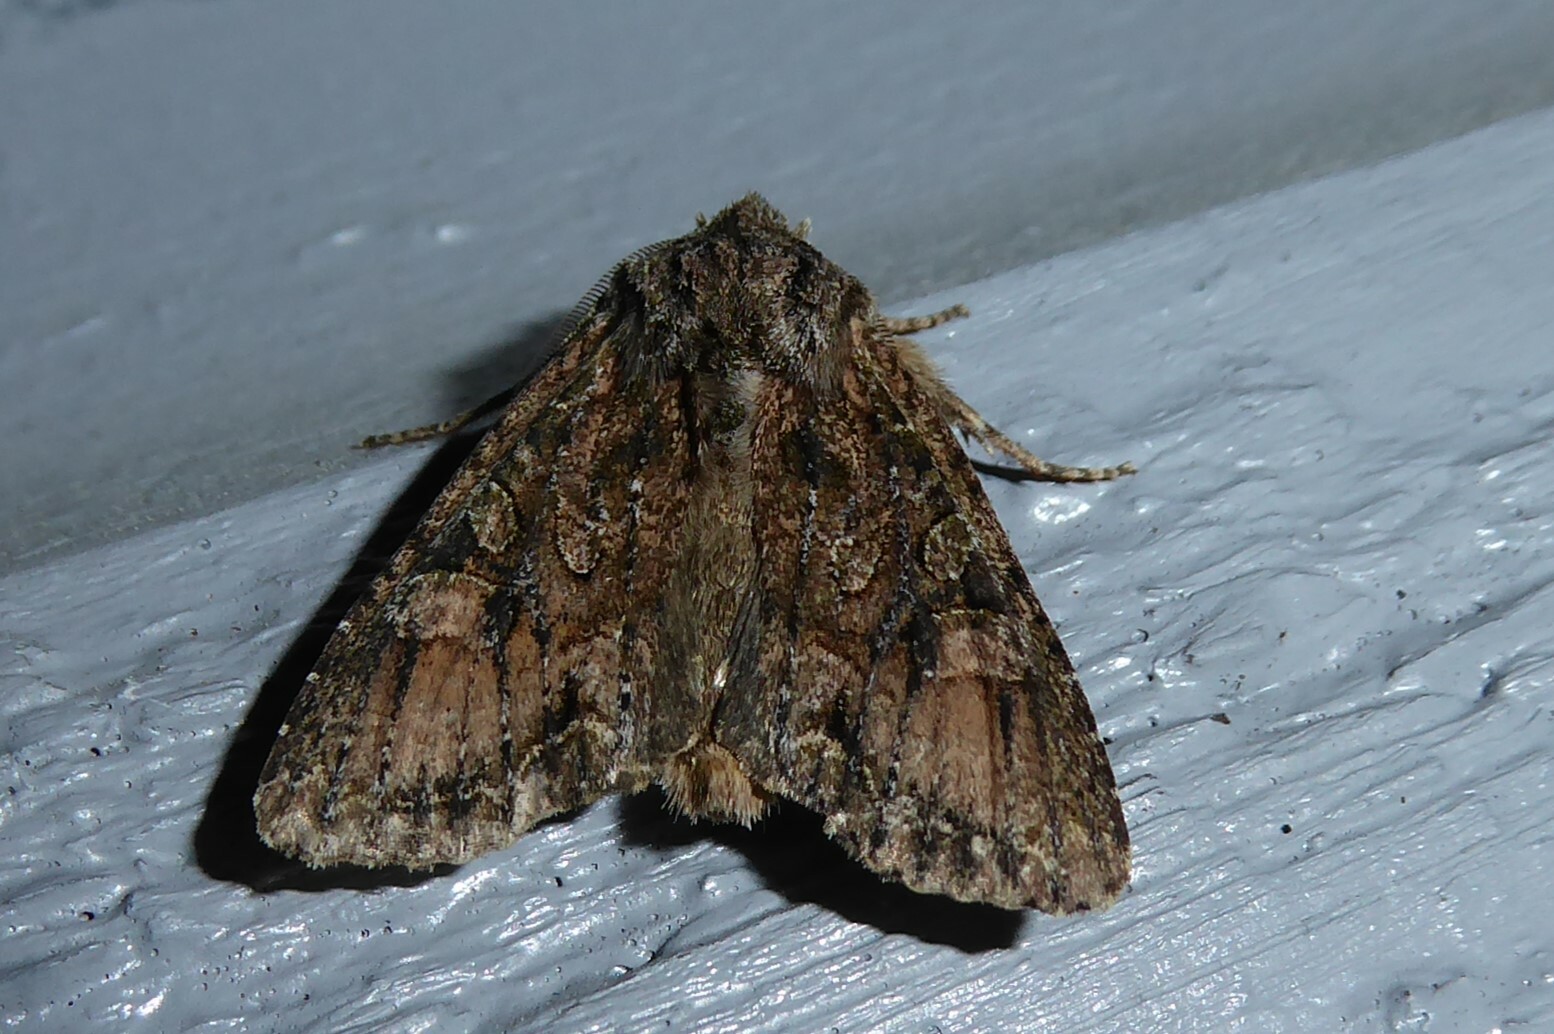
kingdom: Animalia
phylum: Arthropoda
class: Insecta
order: Lepidoptera
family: Noctuidae
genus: Ichneutica
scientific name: Ichneutica mutans
